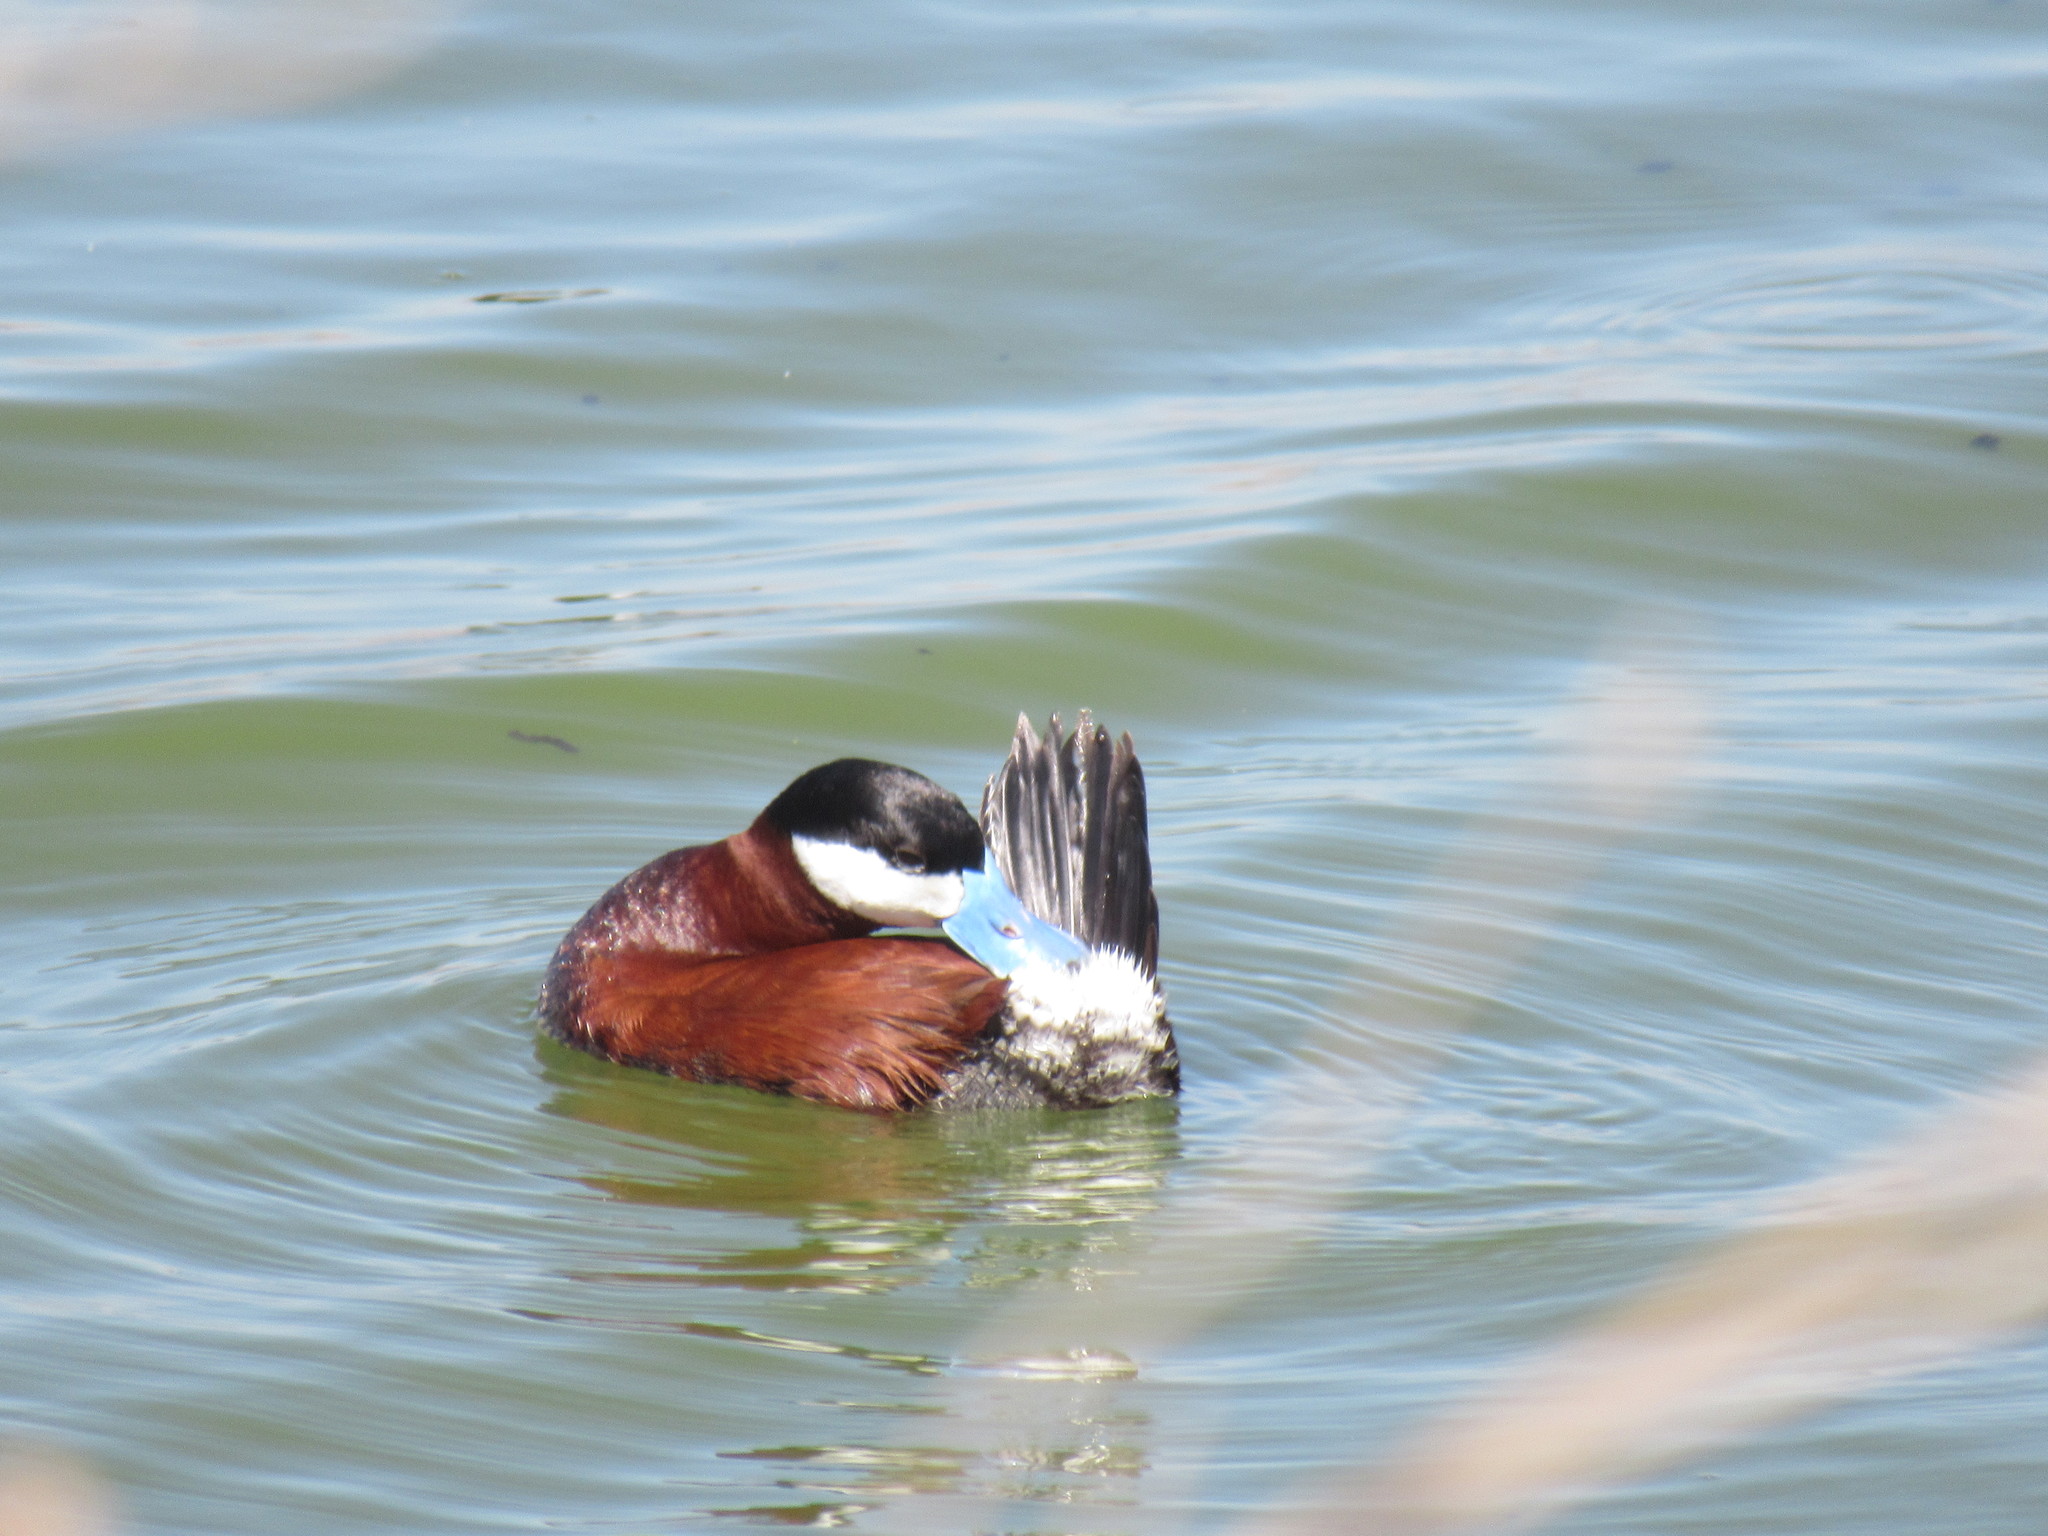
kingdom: Animalia
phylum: Chordata
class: Aves
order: Anseriformes
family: Anatidae
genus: Oxyura
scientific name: Oxyura jamaicensis
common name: Ruddy duck
